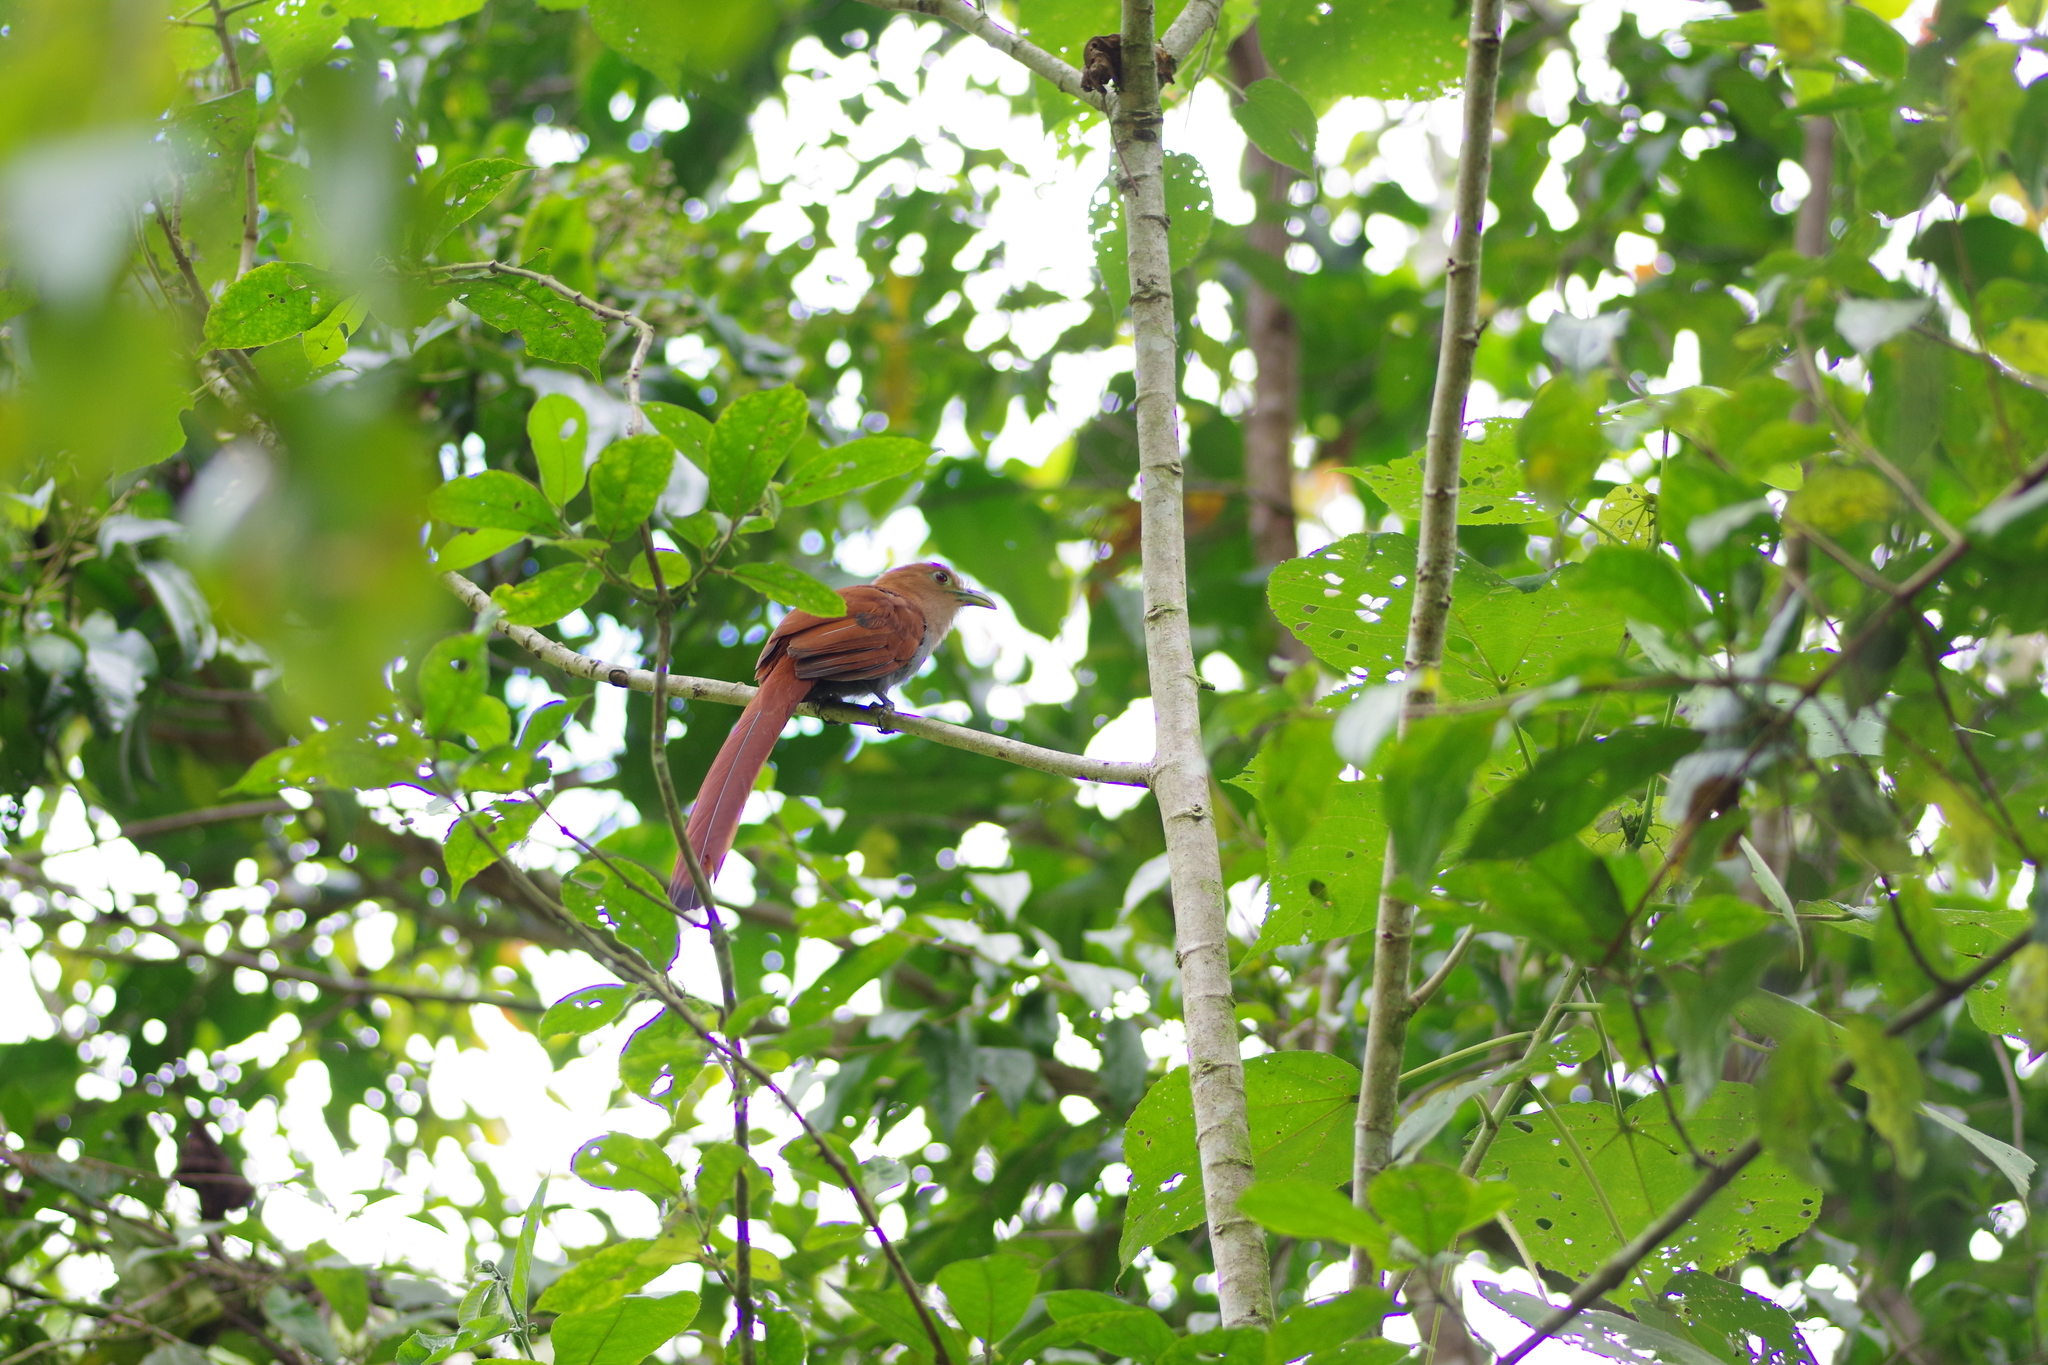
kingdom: Animalia
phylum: Chordata
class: Aves
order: Cuculiformes
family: Cuculidae
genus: Piaya
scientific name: Piaya cayana
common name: Squirrel cuckoo
